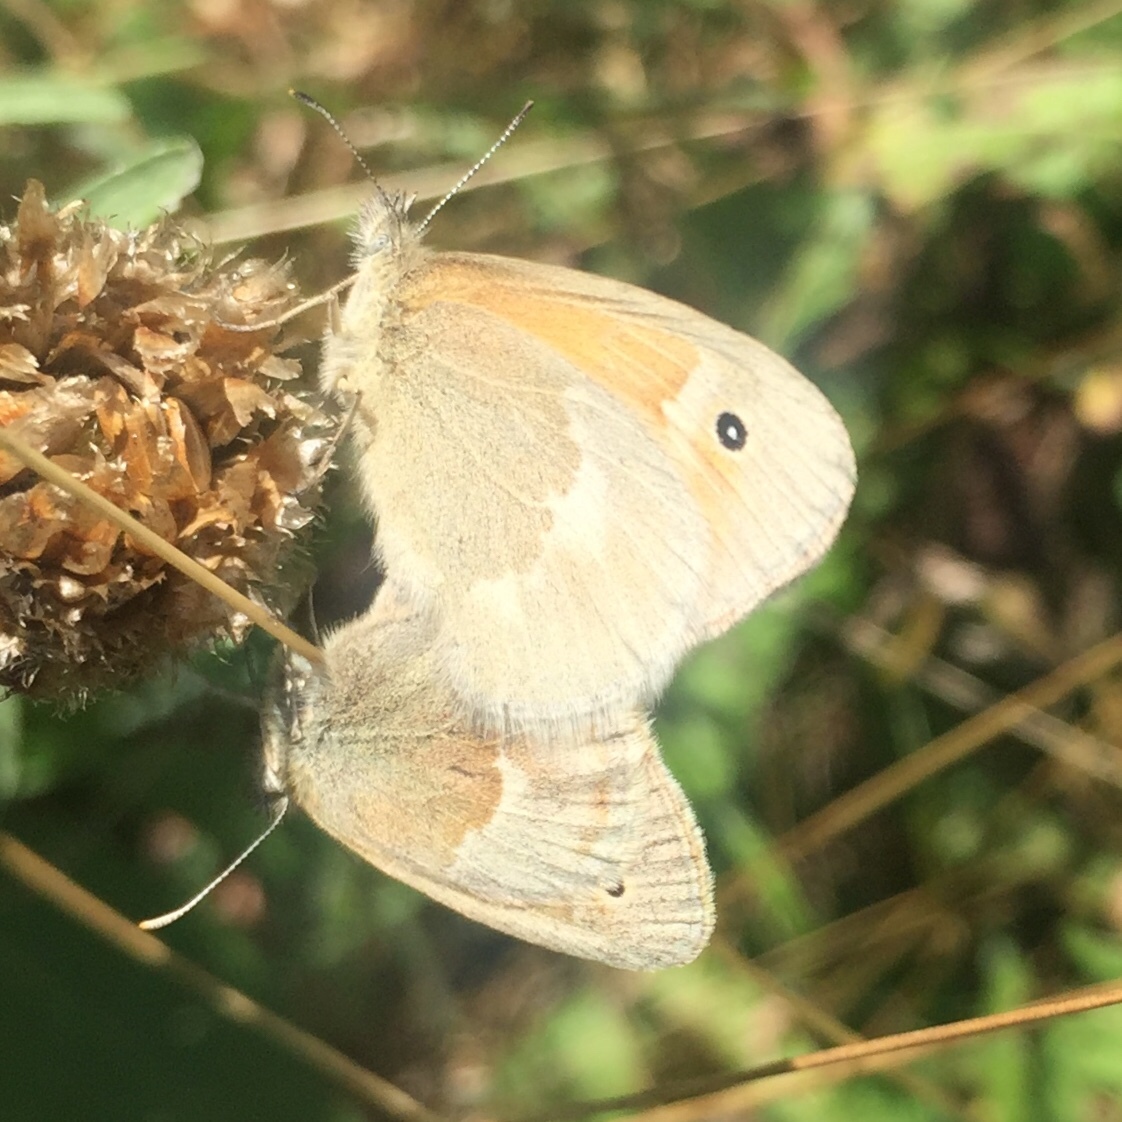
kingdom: Animalia
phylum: Arthropoda
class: Insecta
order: Lepidoptera
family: Nymphalidae
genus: Coenonympha
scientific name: Coenonympha california
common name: Common ringlet
